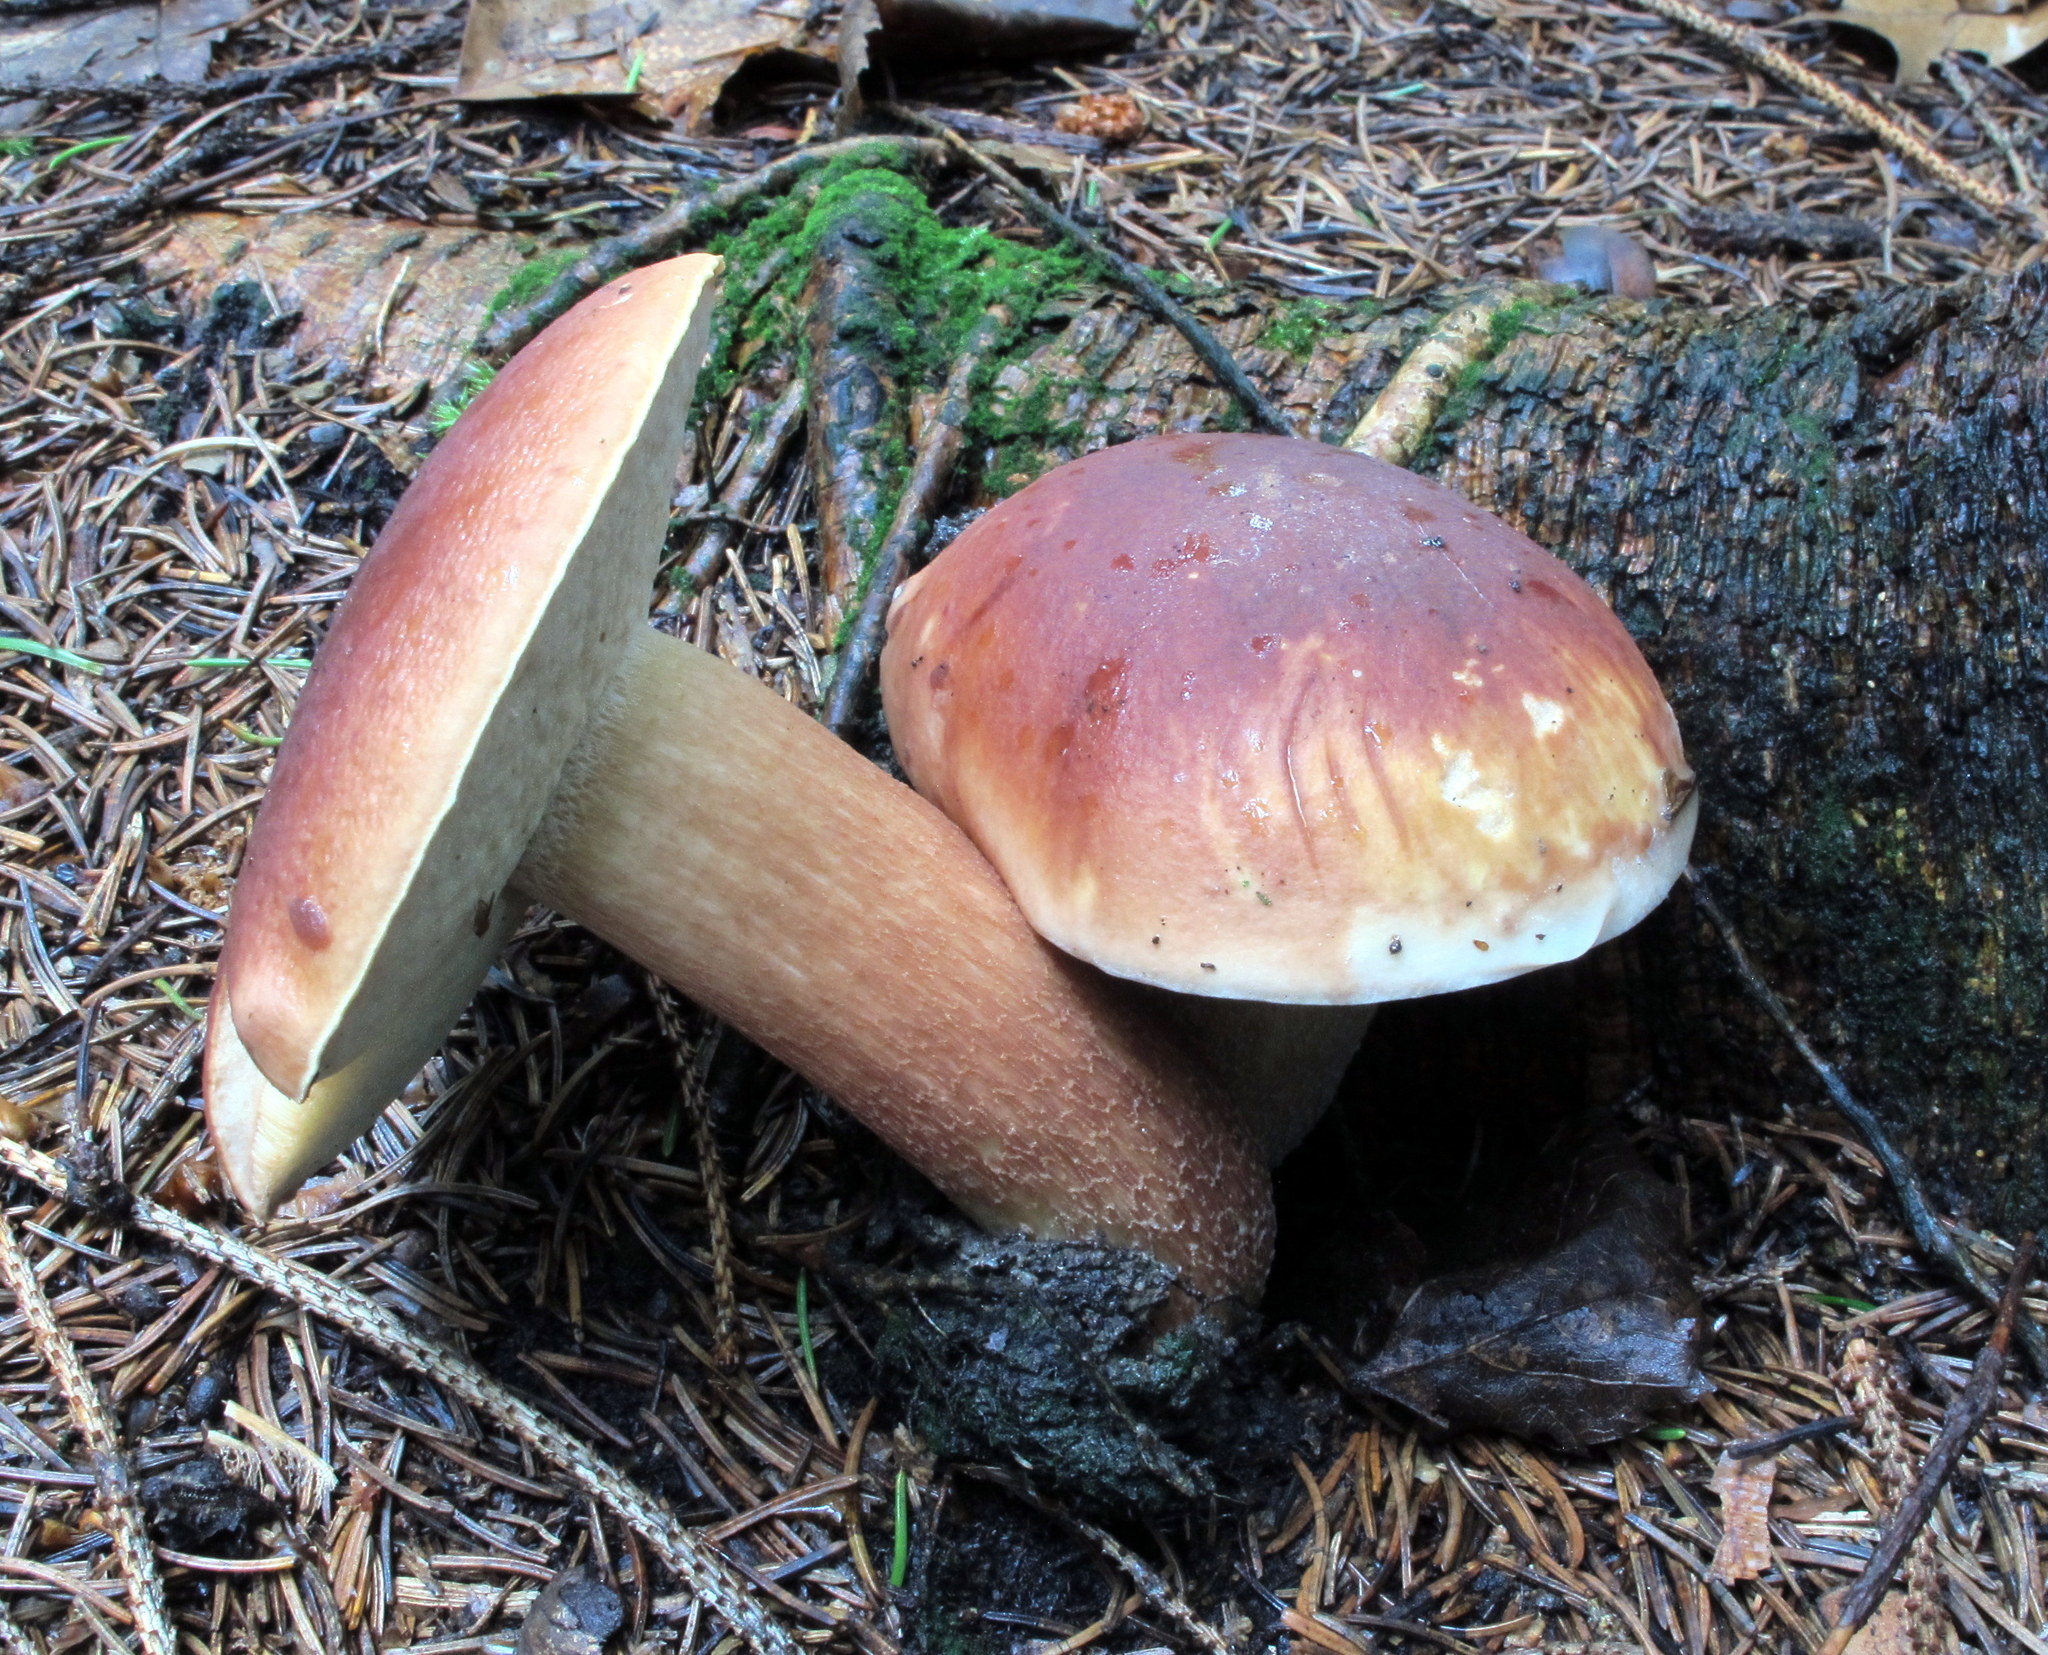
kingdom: Fungi
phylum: Basidiomycota
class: Agaricomycetes
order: Boletales
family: Boletaceae
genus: Boletus
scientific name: Boletus subcaerulescens
